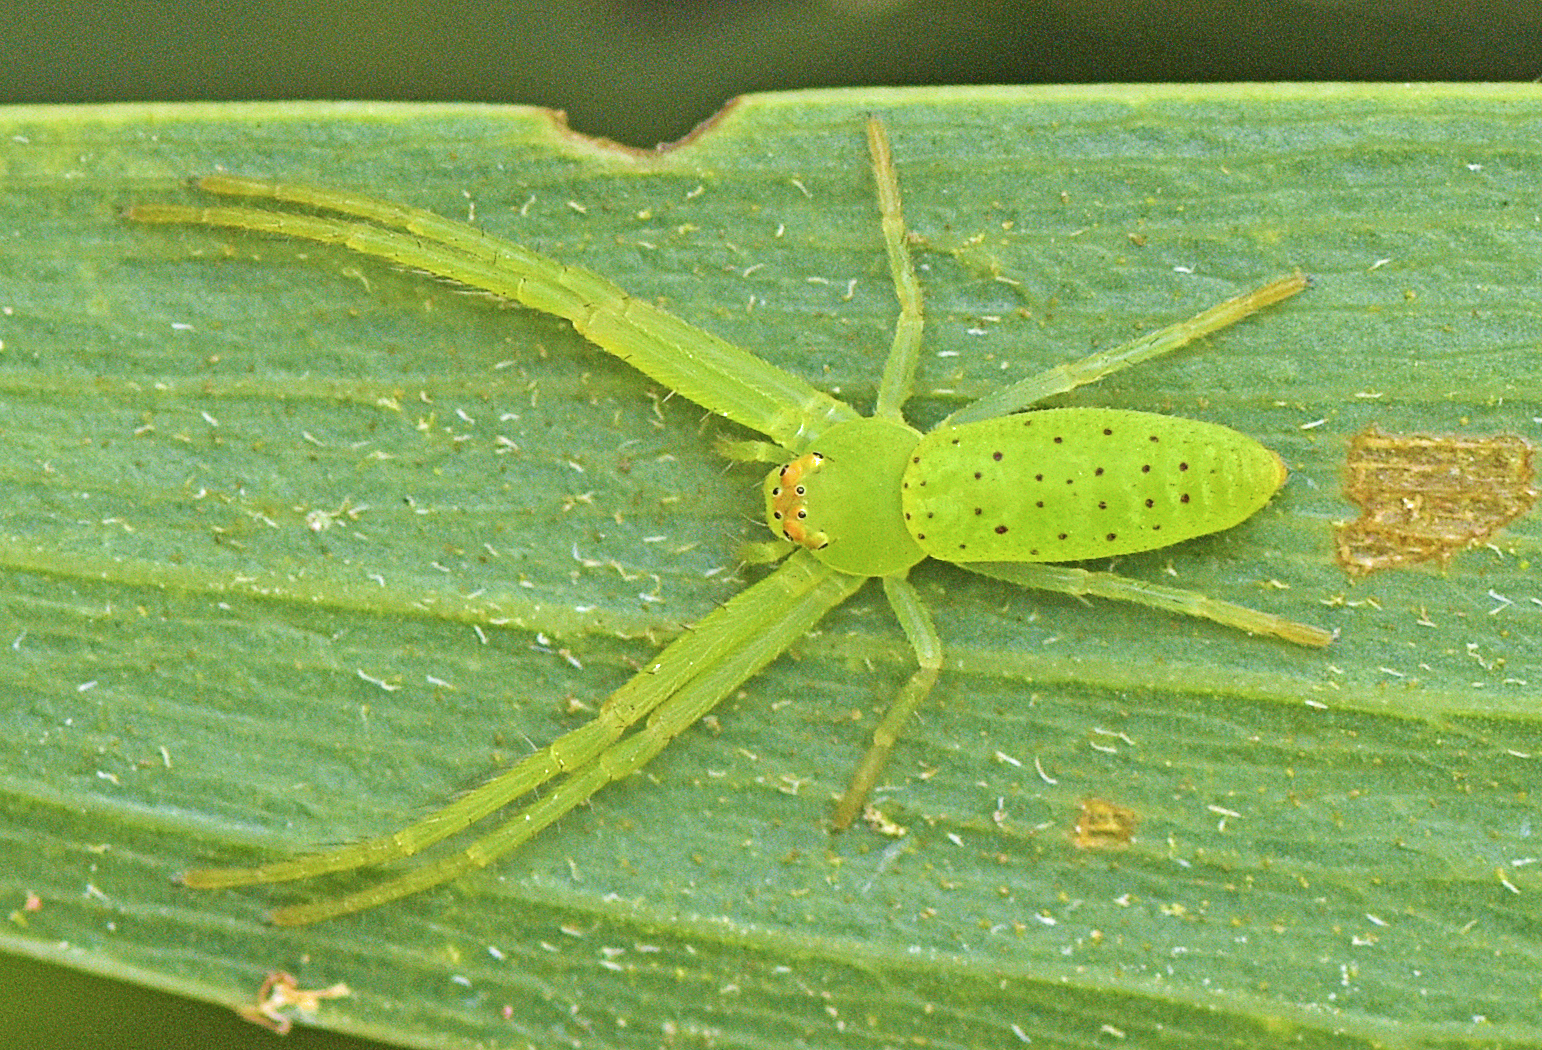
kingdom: Animalia
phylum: Arthropoda
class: Arachnida
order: Araneae
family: Thomisidae
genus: Cetratus
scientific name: Cetratus rubropunctatus
